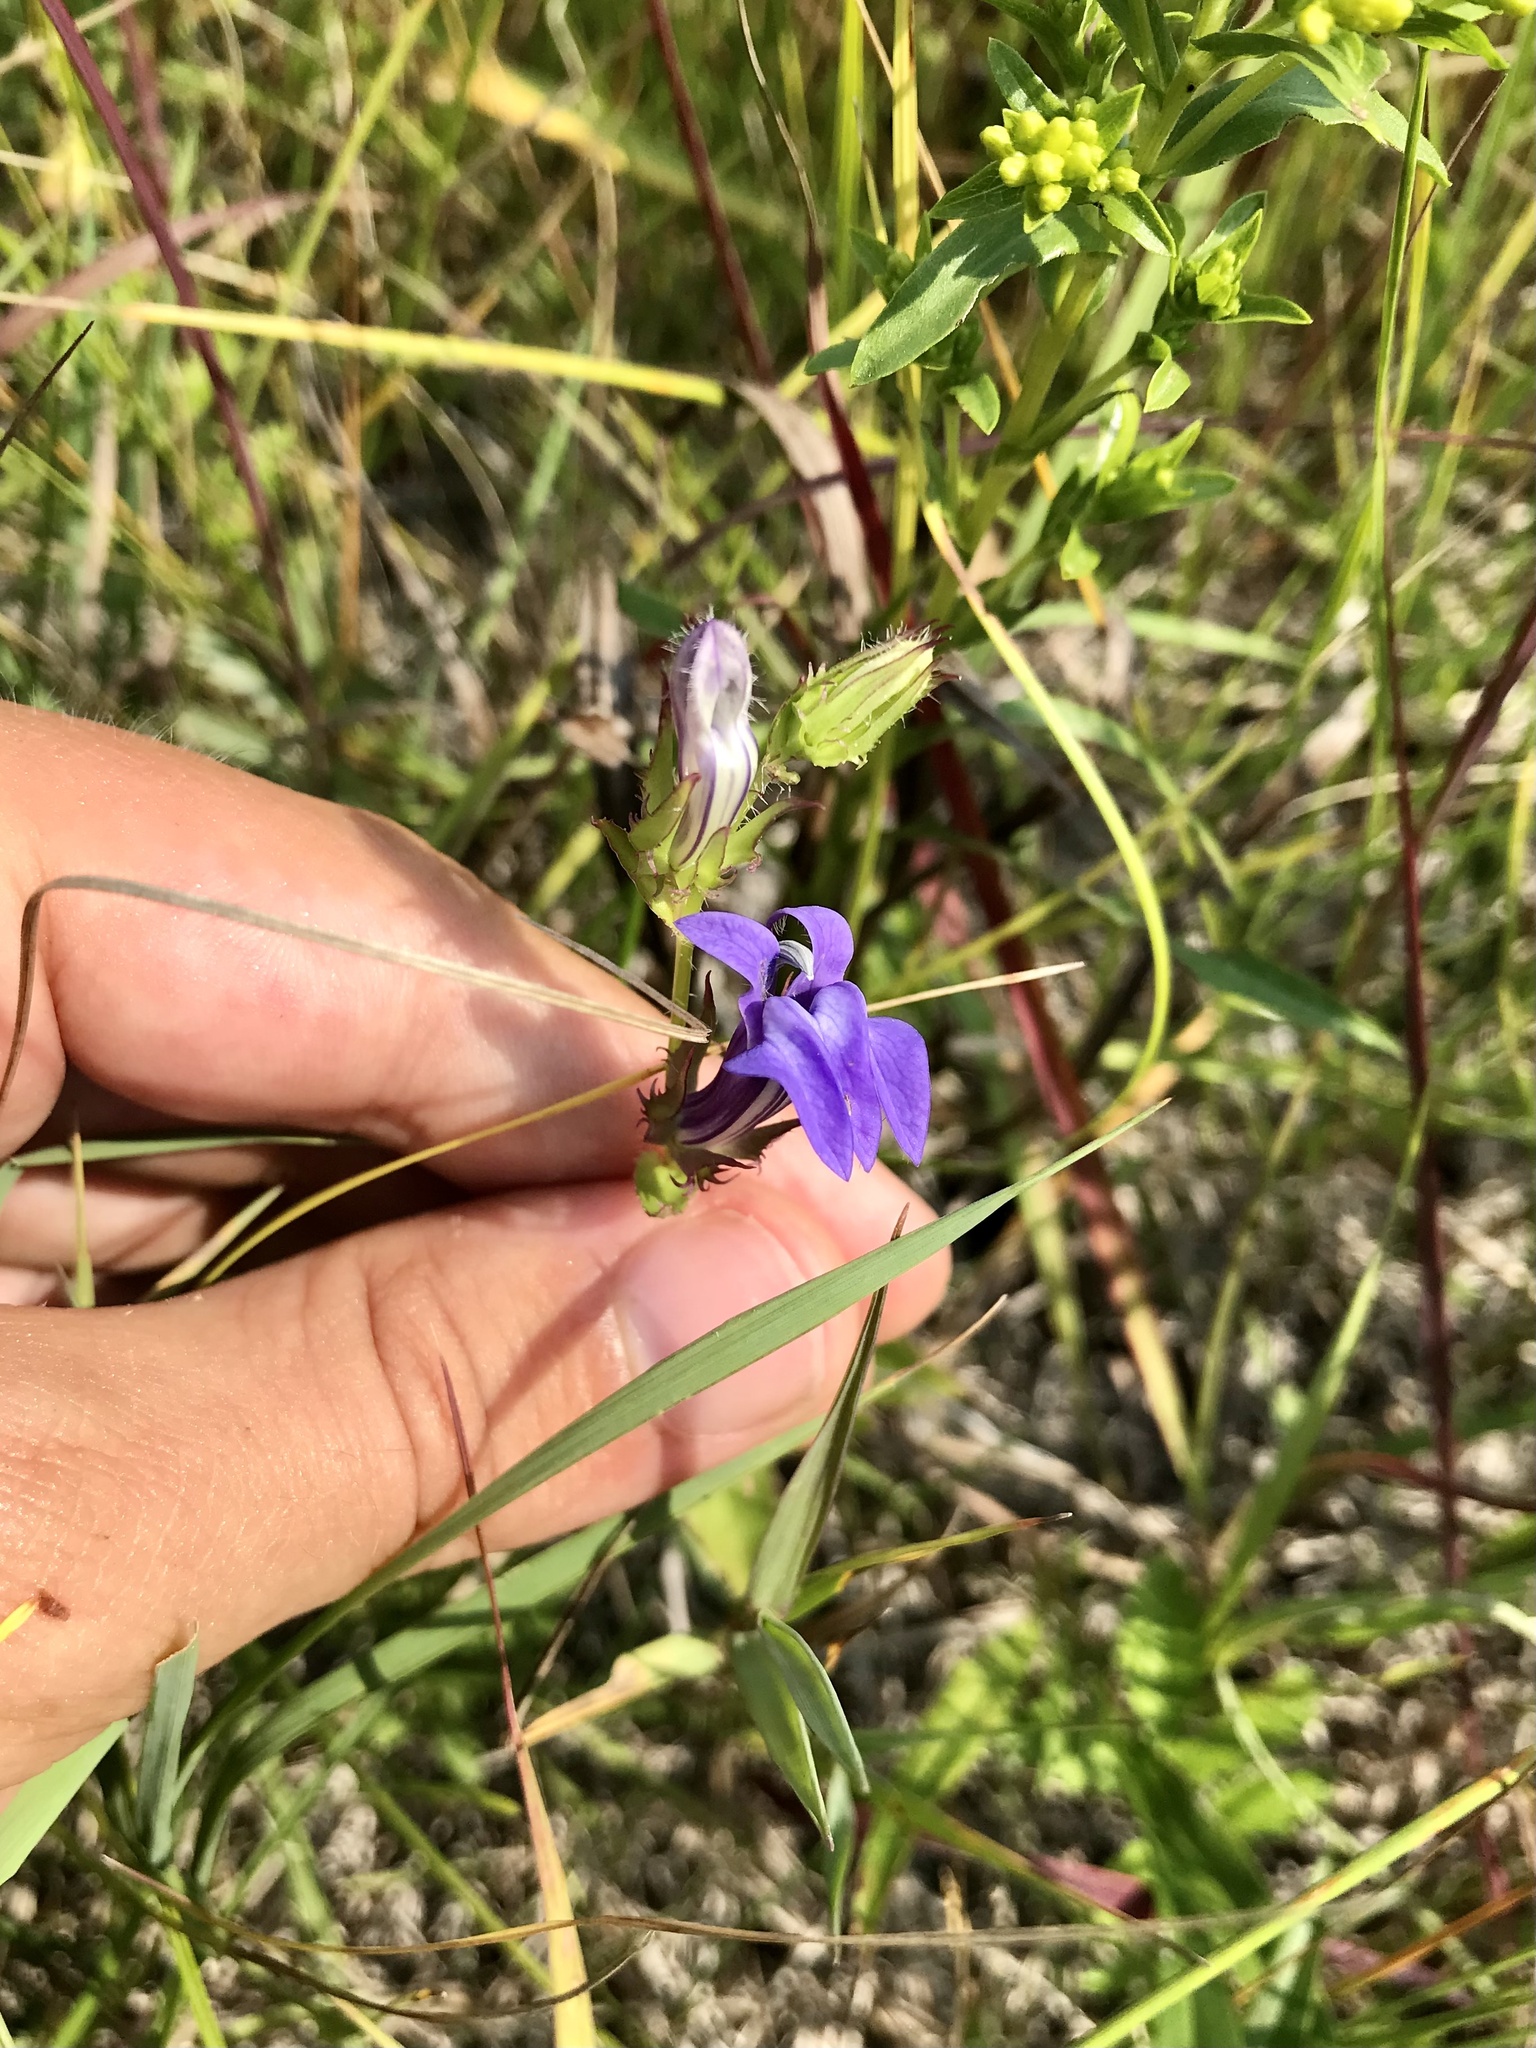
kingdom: Plantae
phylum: Tracheophyta
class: Magnoliopsida
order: Asterales
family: Campanulaceae
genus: Lobelia
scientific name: Lobelia siphilitica
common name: Great lobelia
